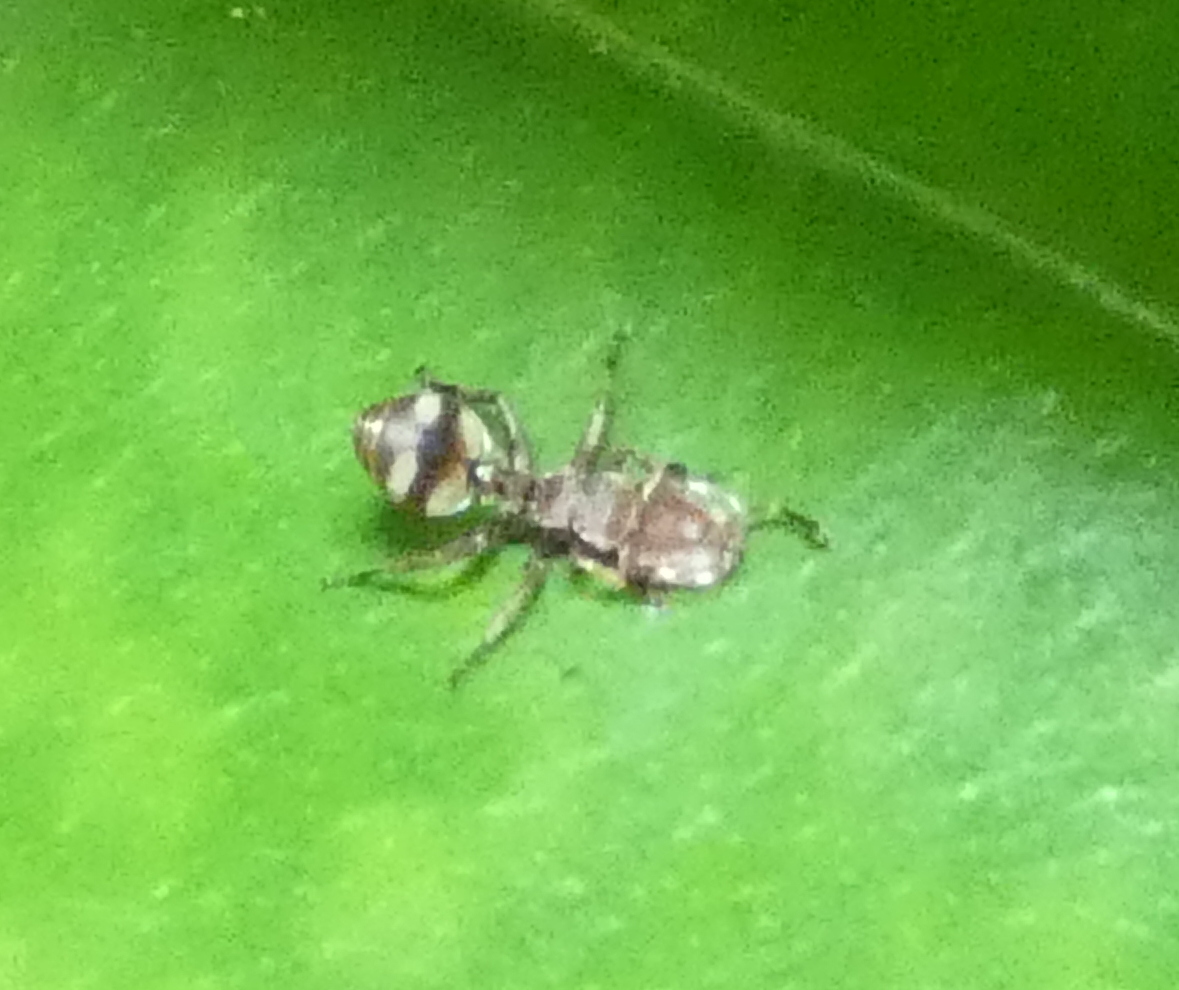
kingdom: Animalia
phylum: Arthropoda
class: Insecta
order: Hymenoptera
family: Formicidae
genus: Cephalotes
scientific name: Cephalotes umbraculatus
